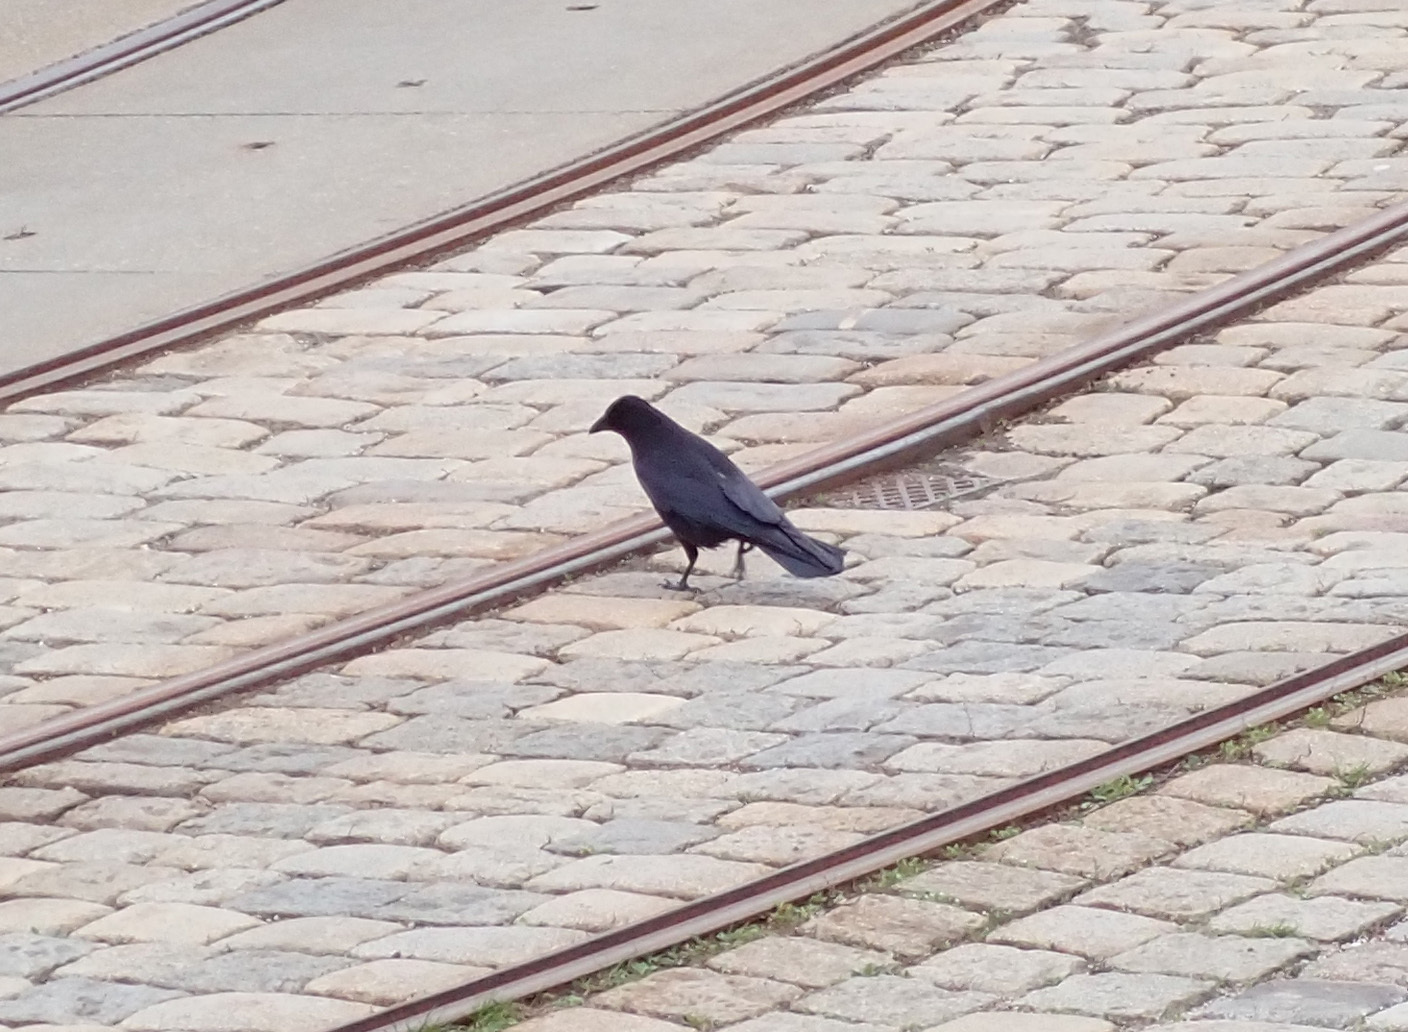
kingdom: Animalia
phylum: Chordata
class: Aves
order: Passeriformes
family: Corvidae
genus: Corvus
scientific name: Corvus corone
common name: Carrion crow
